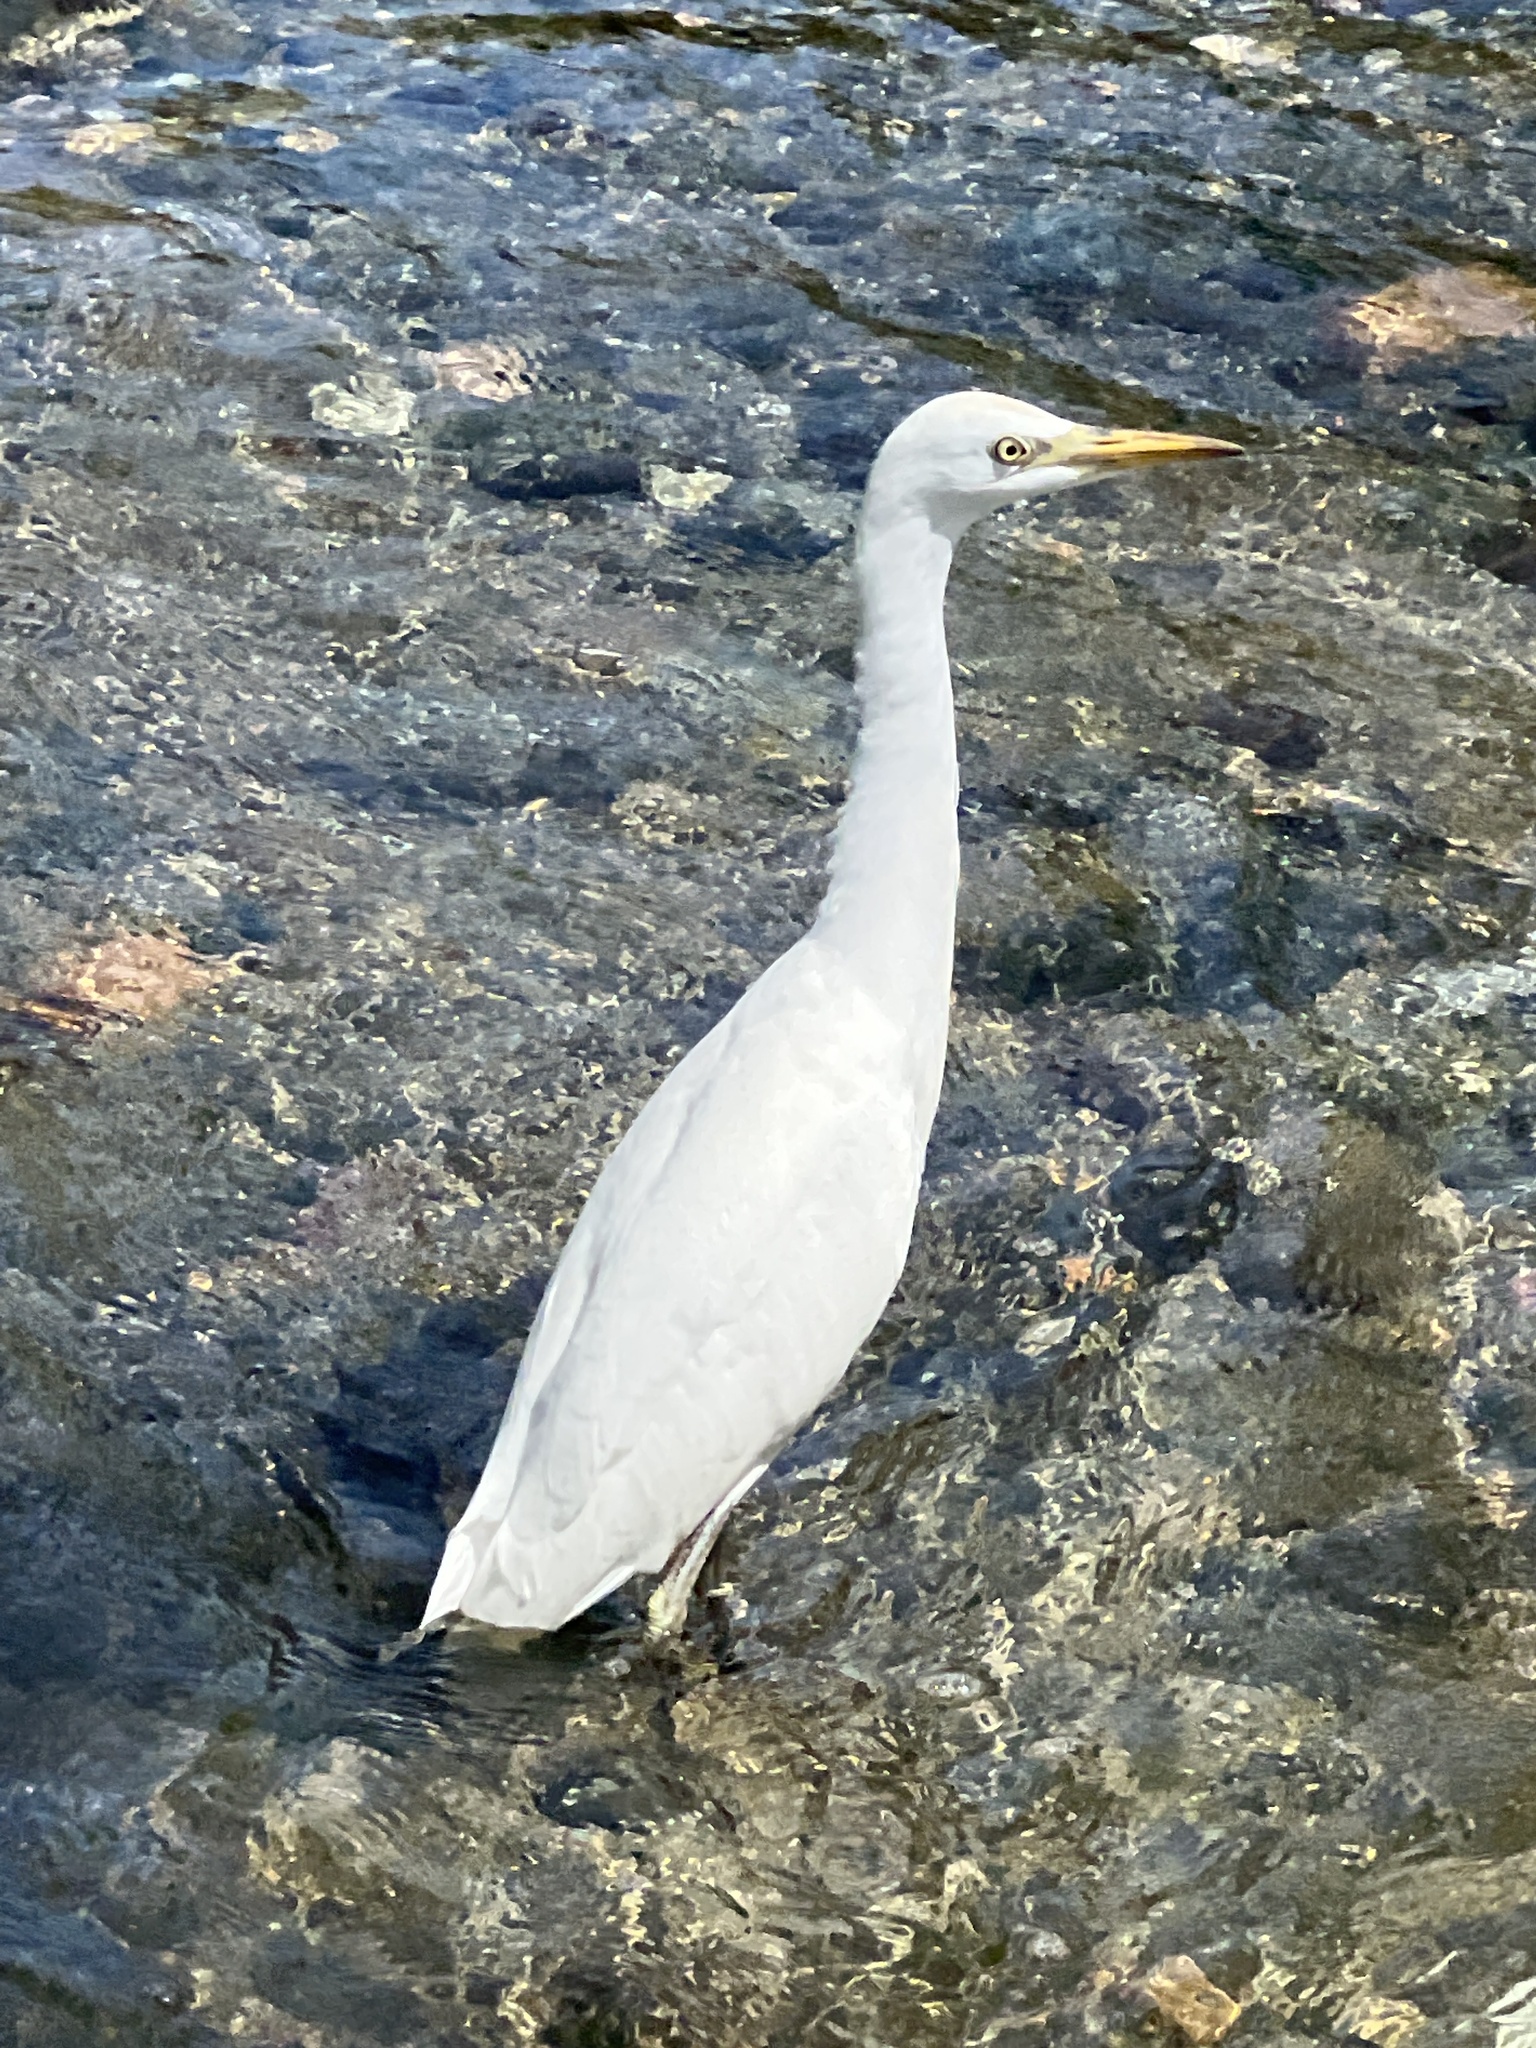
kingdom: Animalia
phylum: Chordata
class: Aves
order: Pelecaniformes
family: Ardeidae
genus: Bubulcus
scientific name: Bubulcus ibis
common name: Cattle egret
